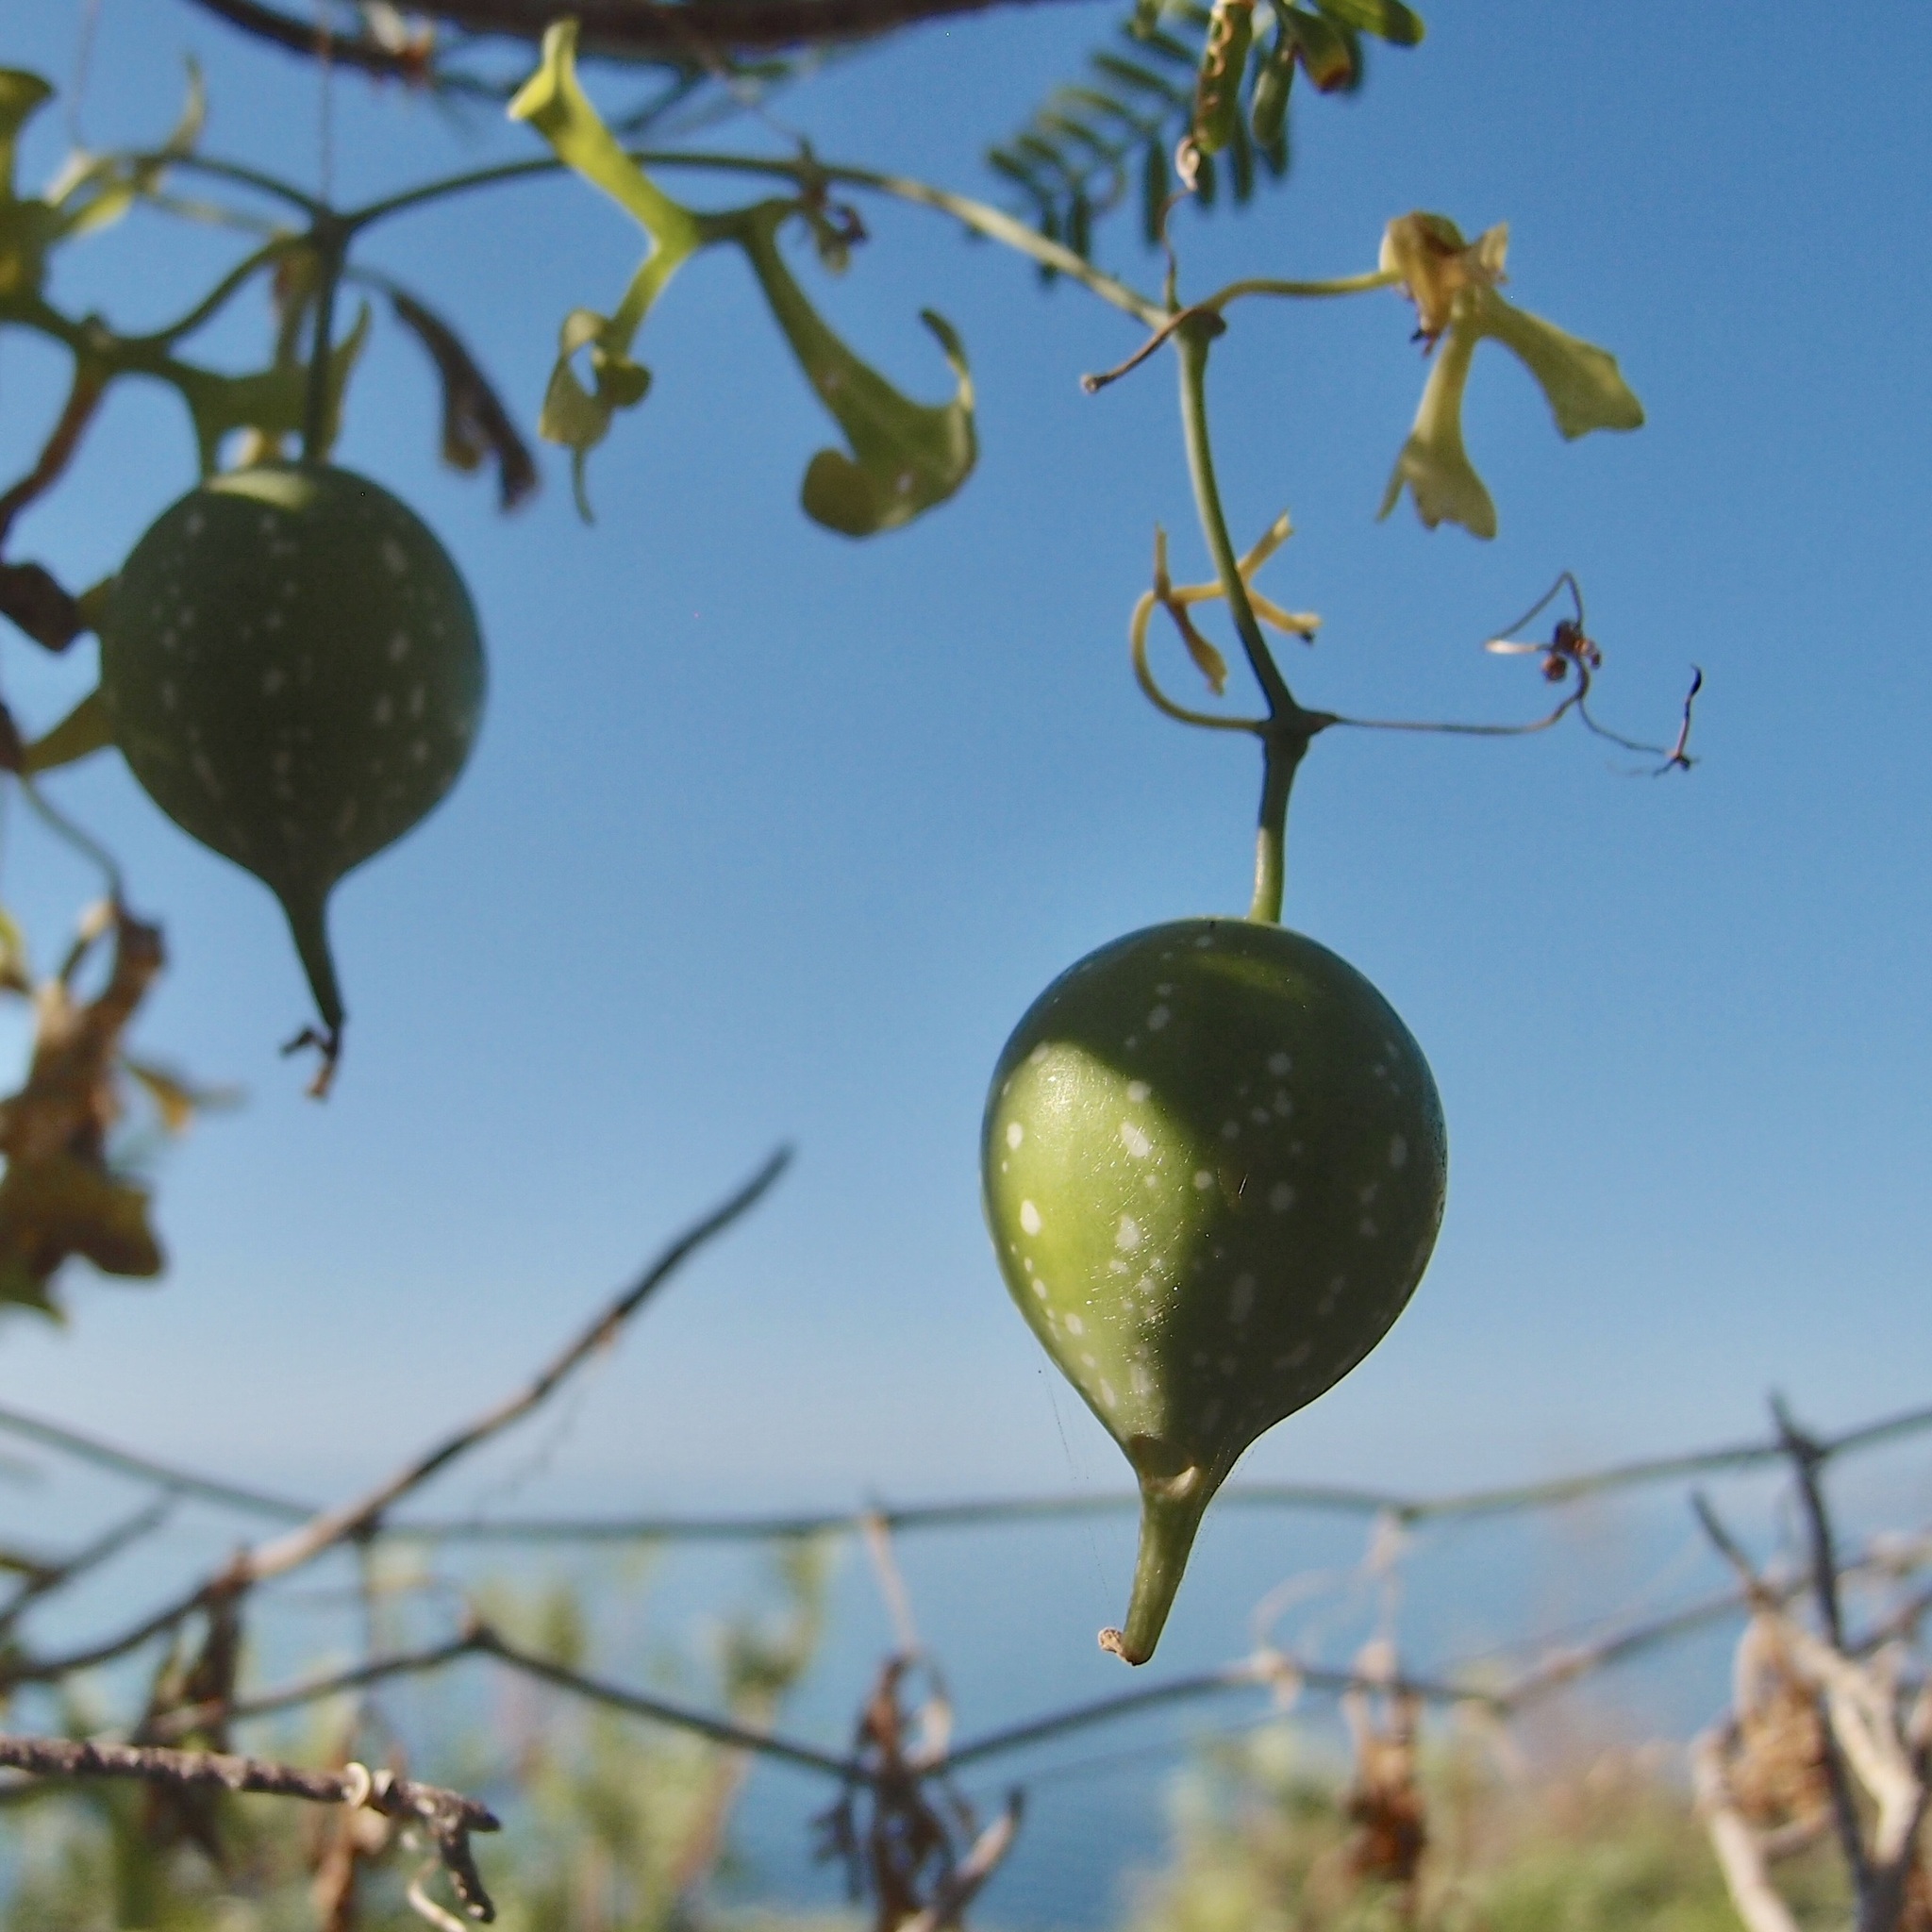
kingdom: Plantae
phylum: Tracheophyta
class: Magnoliopsida
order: Cucurbitales
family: Cucurbitaceae
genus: Ibervillea
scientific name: Ibervillea sonorae
